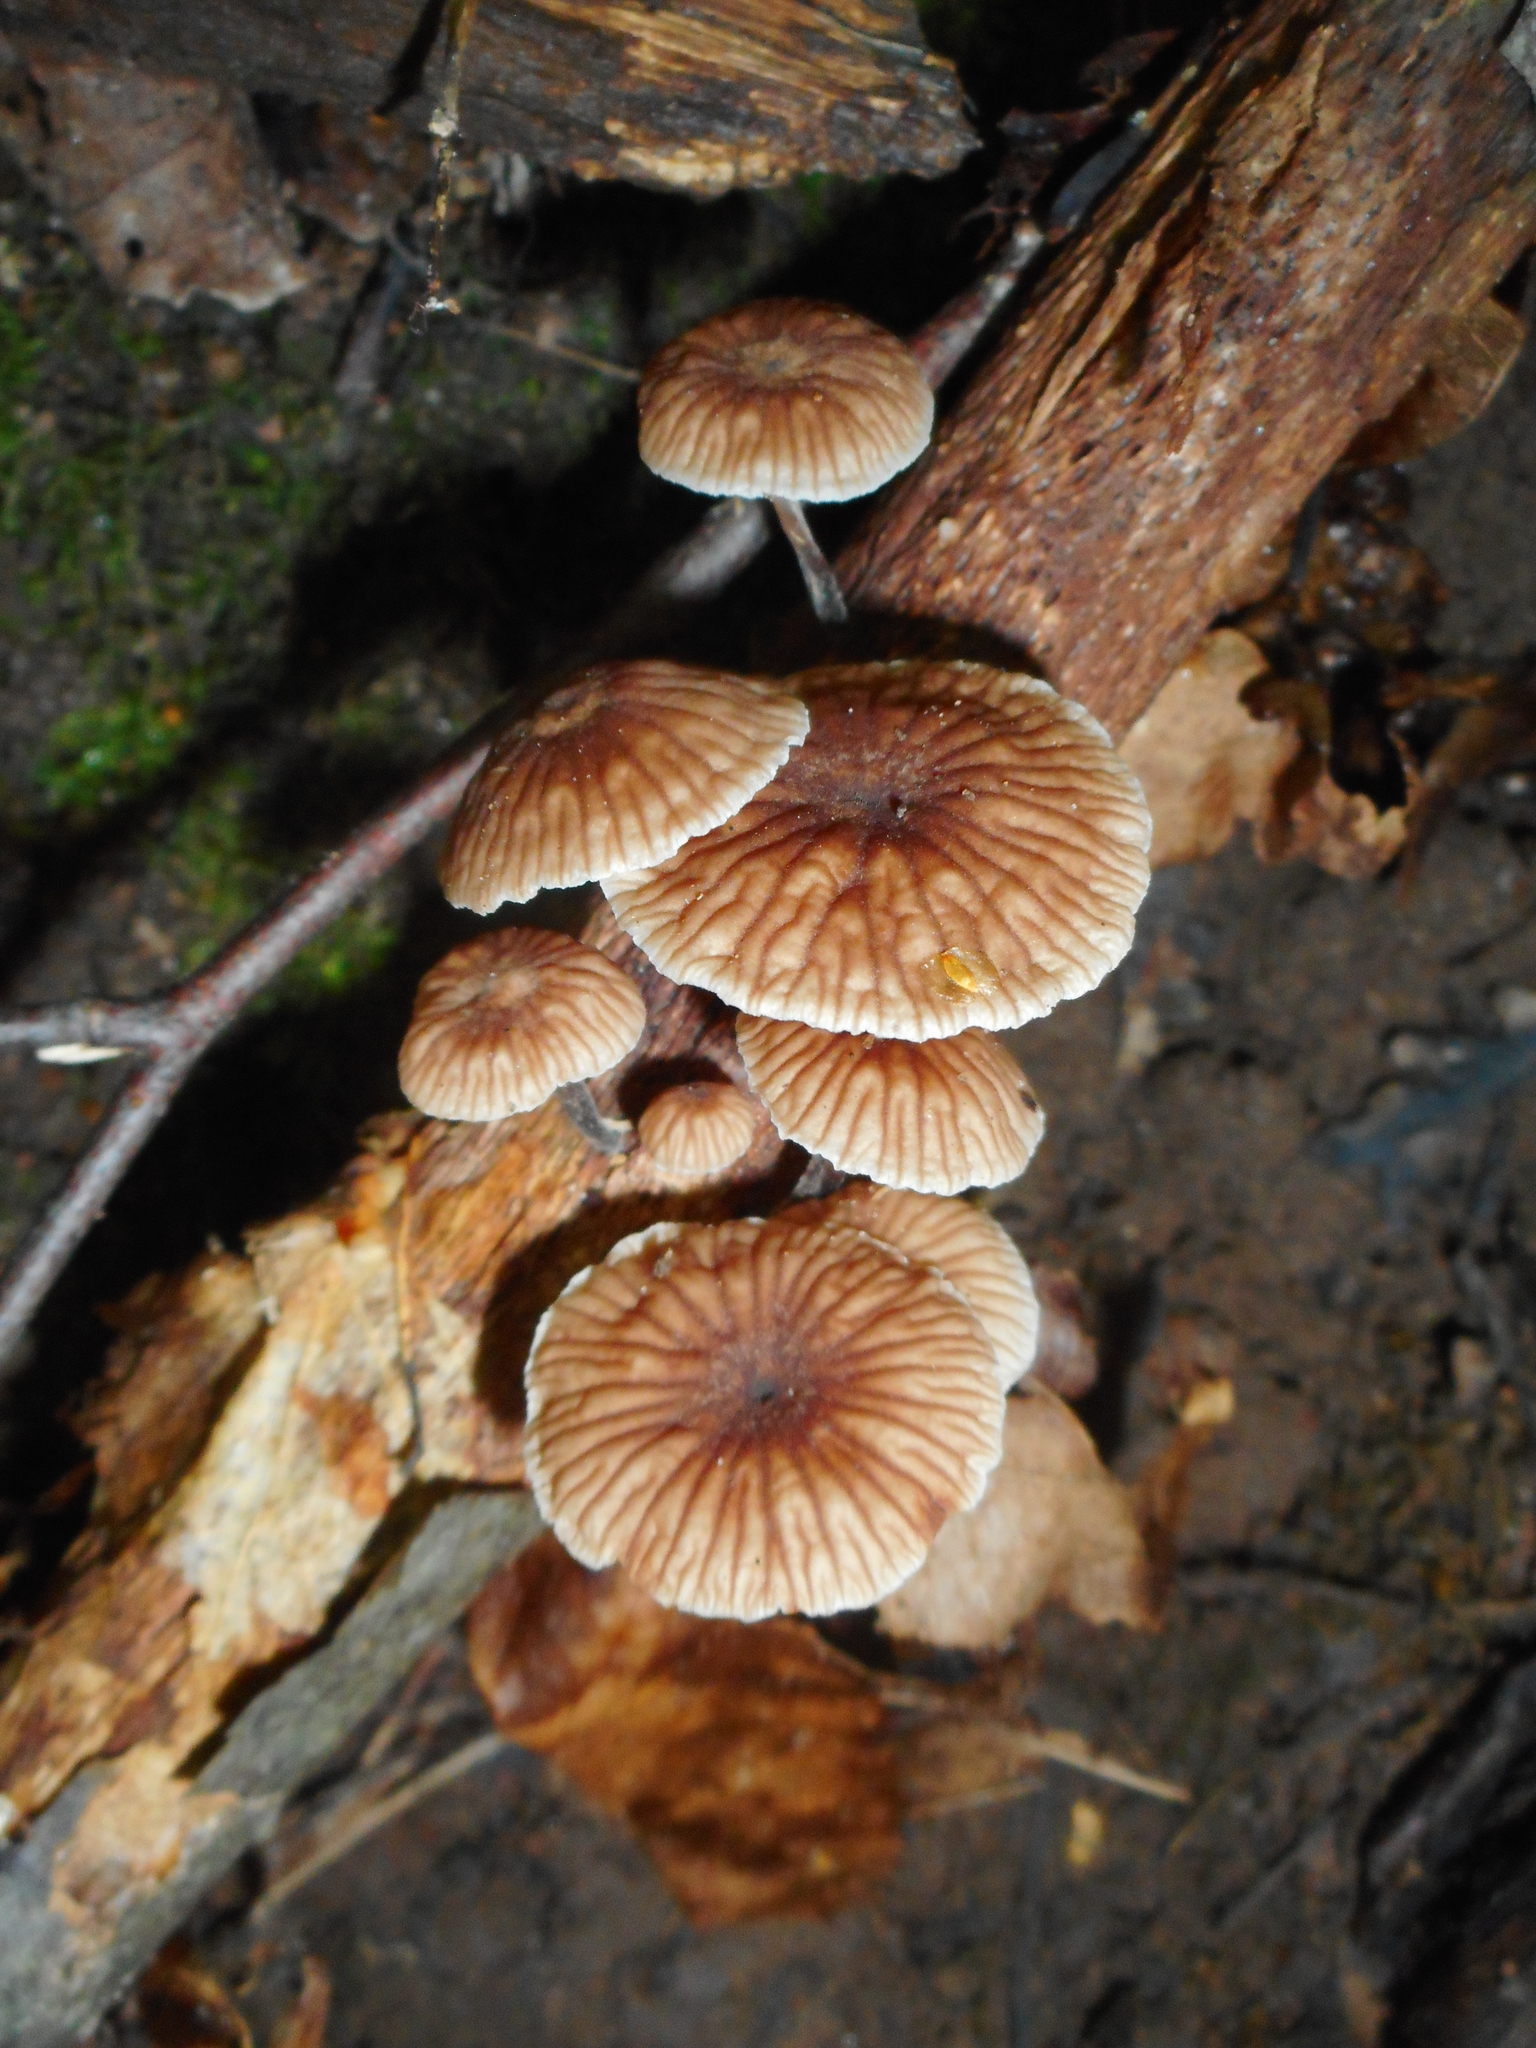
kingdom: Fungi
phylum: Basidiomycota
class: Agaricomycetes
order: Agaricales
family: Omphalotaceae
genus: Gymnopus
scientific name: Gymnopus foetidus
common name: Foetid parachute
